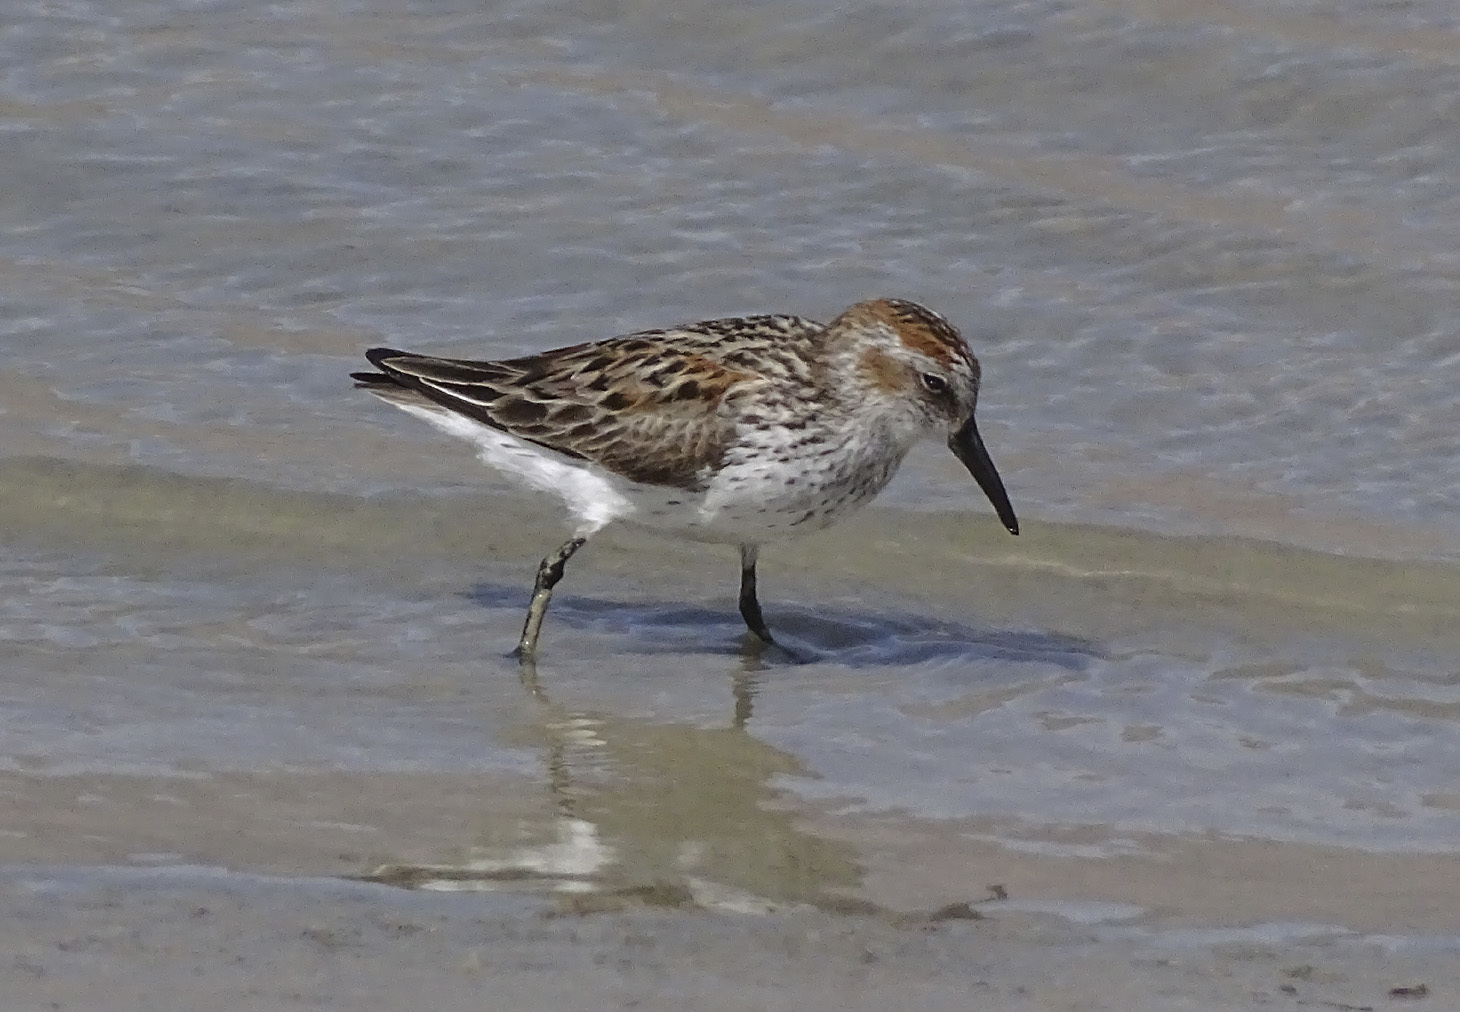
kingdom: Animalia
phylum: Chordata
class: Aves
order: Charadriiformes
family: Scolopacidae
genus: Calidris
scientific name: Calidris mauri
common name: Western sandpiper
